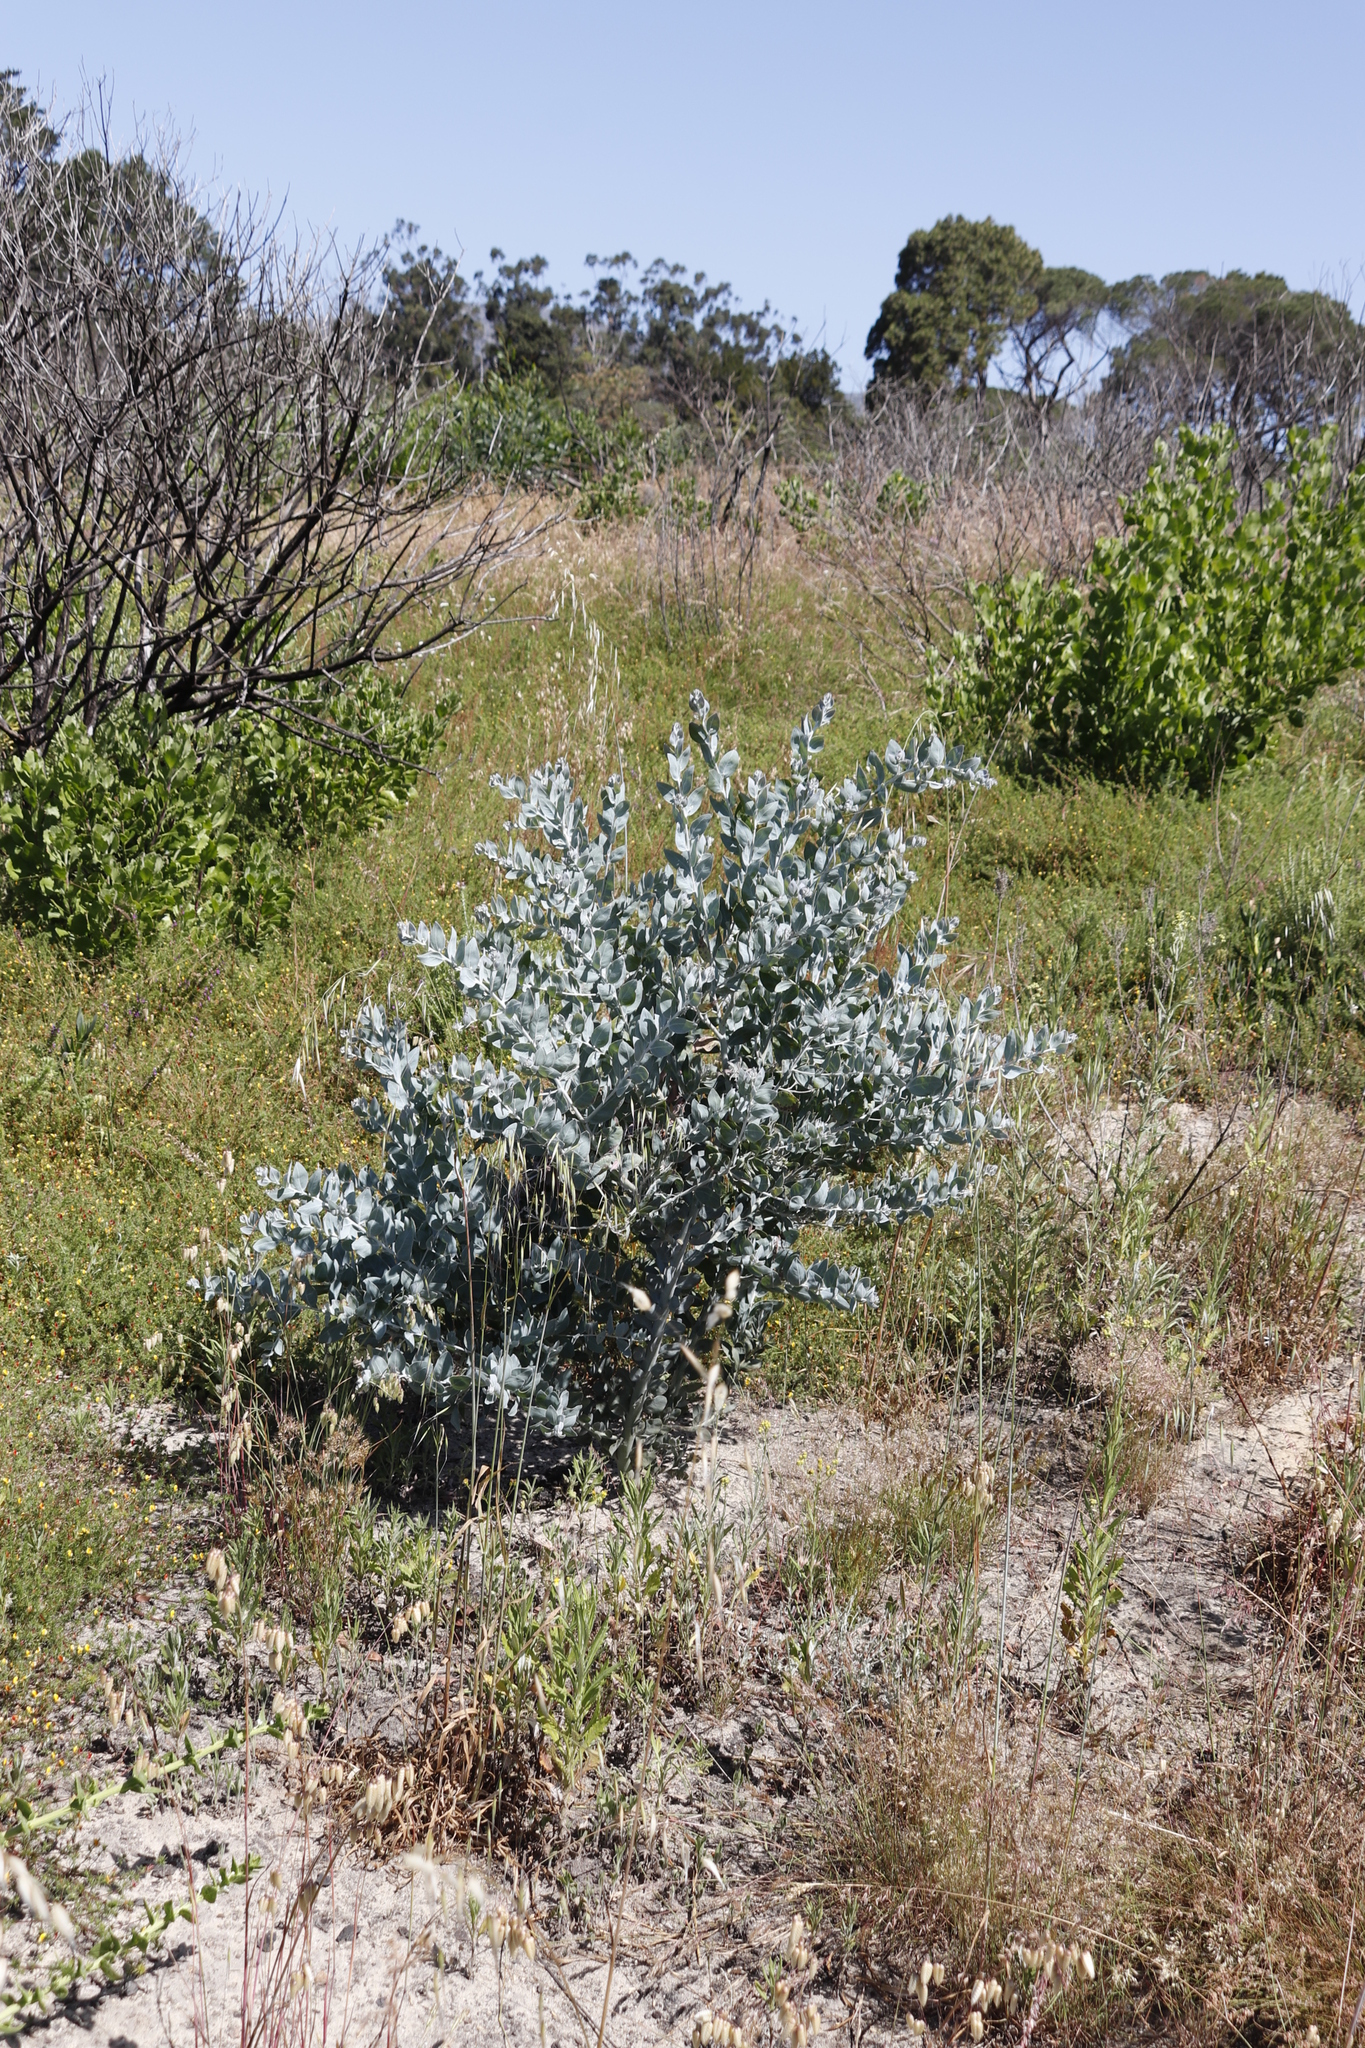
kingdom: Plantae
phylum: Tracheophyta
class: Magnoliopsida
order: Fabales
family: Fabaceae
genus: Acacia
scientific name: Acacia podalyriifolia
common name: Pearl wattle
